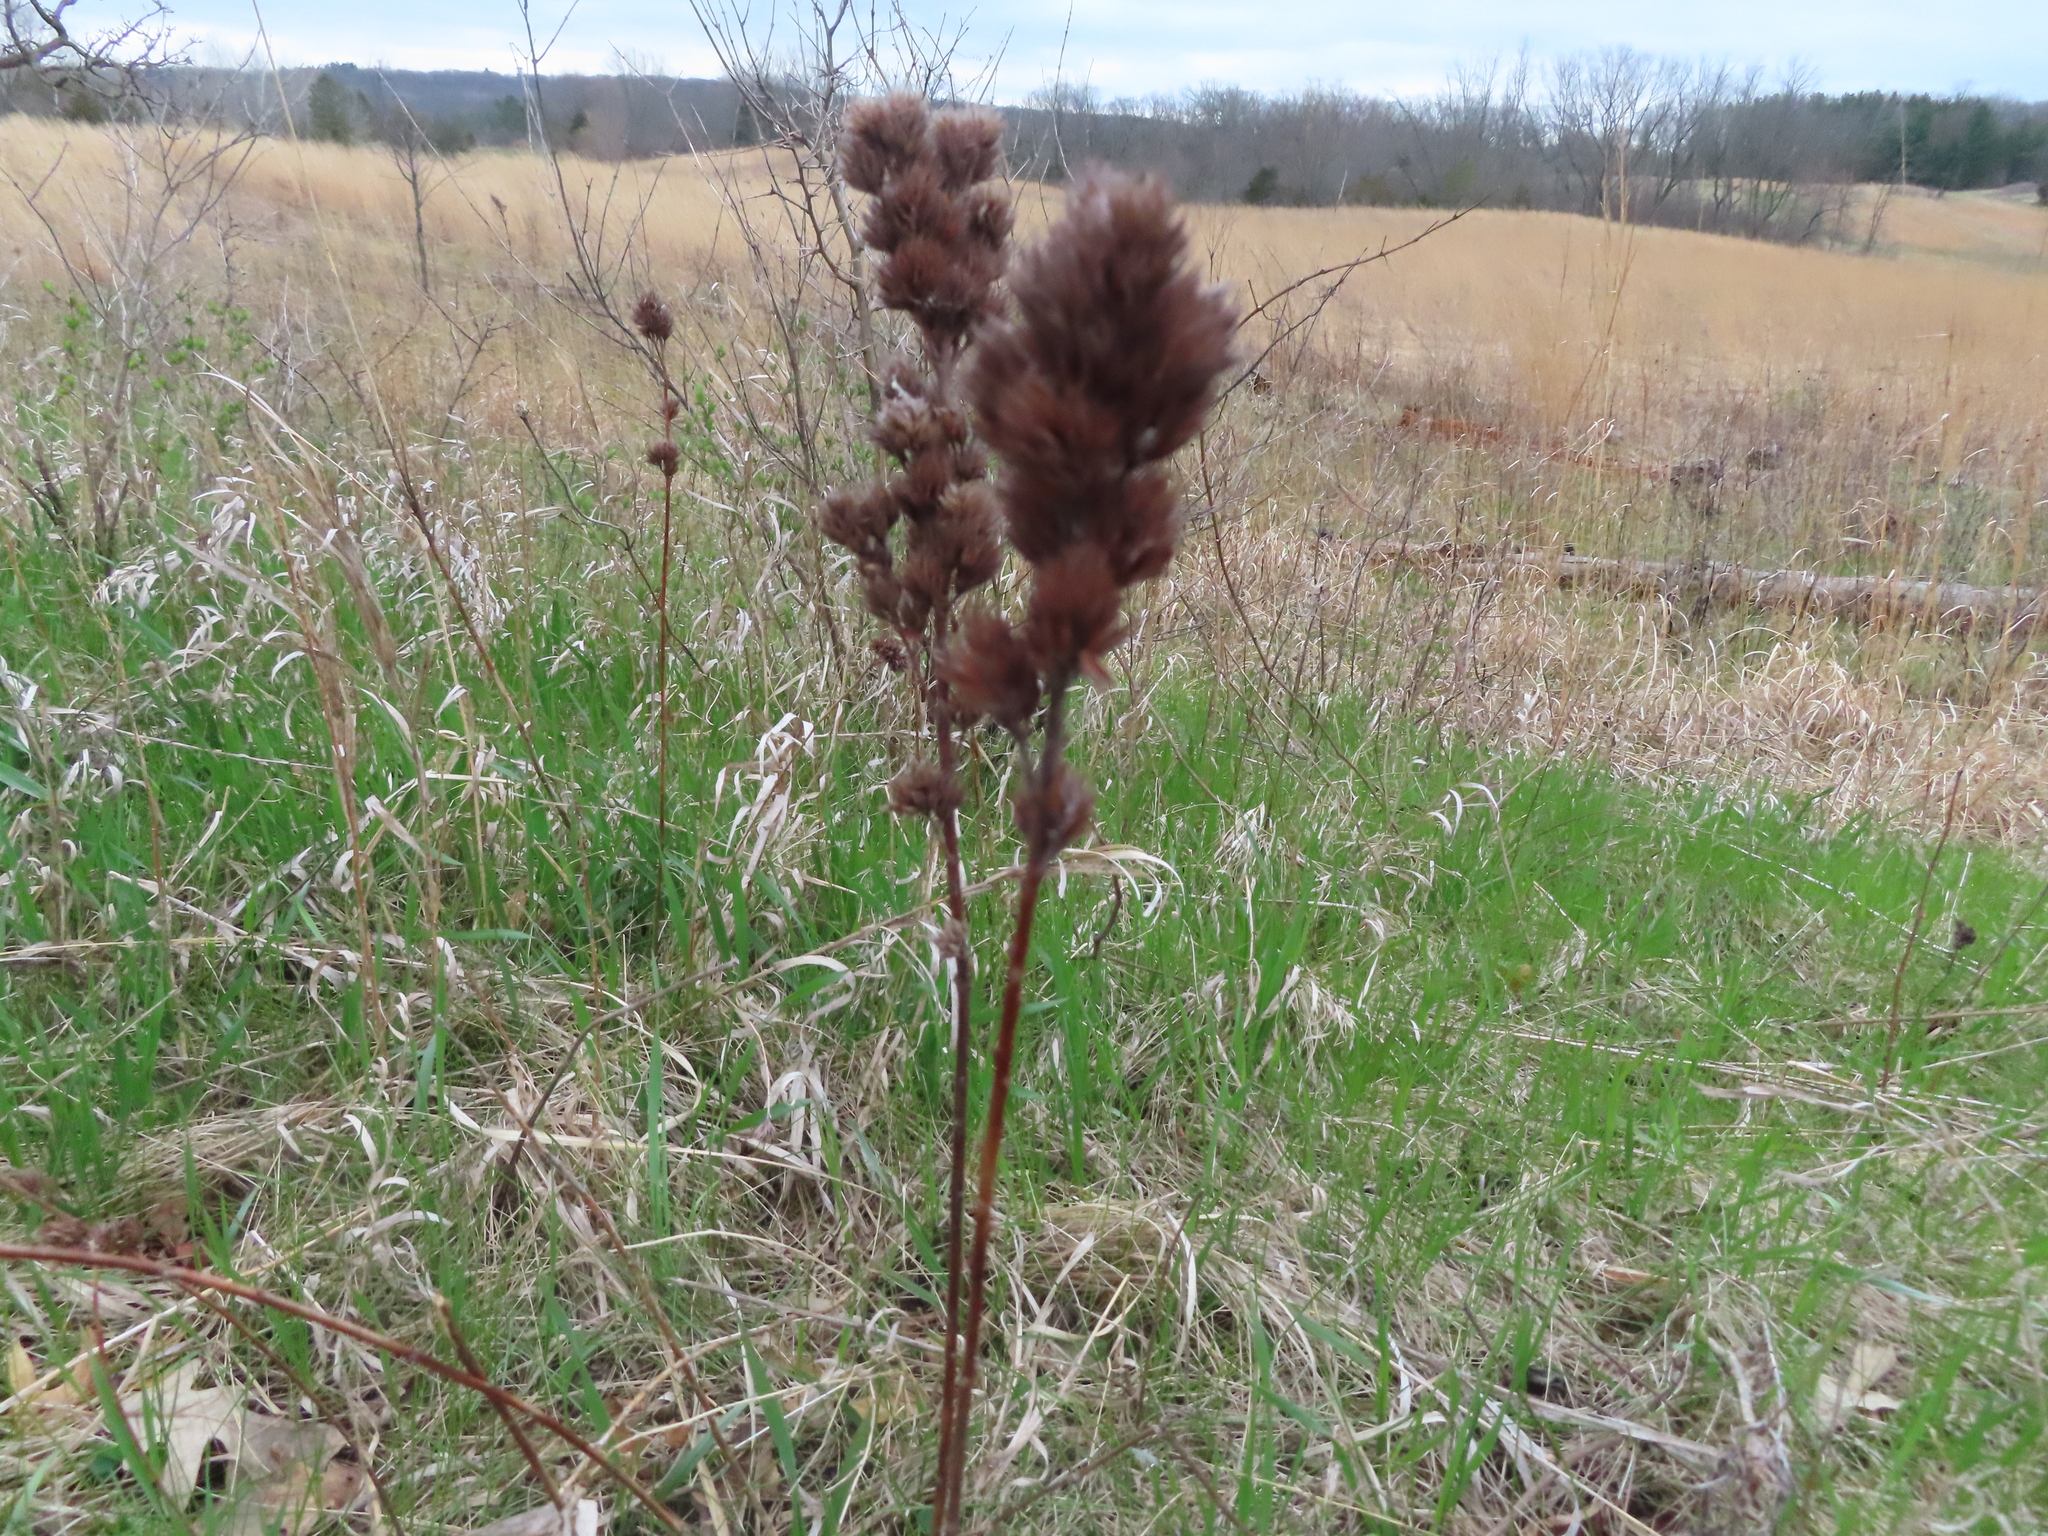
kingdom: Plantae
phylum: Tracheophyta
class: Magnoliopsida
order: Fabales
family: Fabaceae
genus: Lespedeza
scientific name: Lespedeza capitata
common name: Dusty clover
